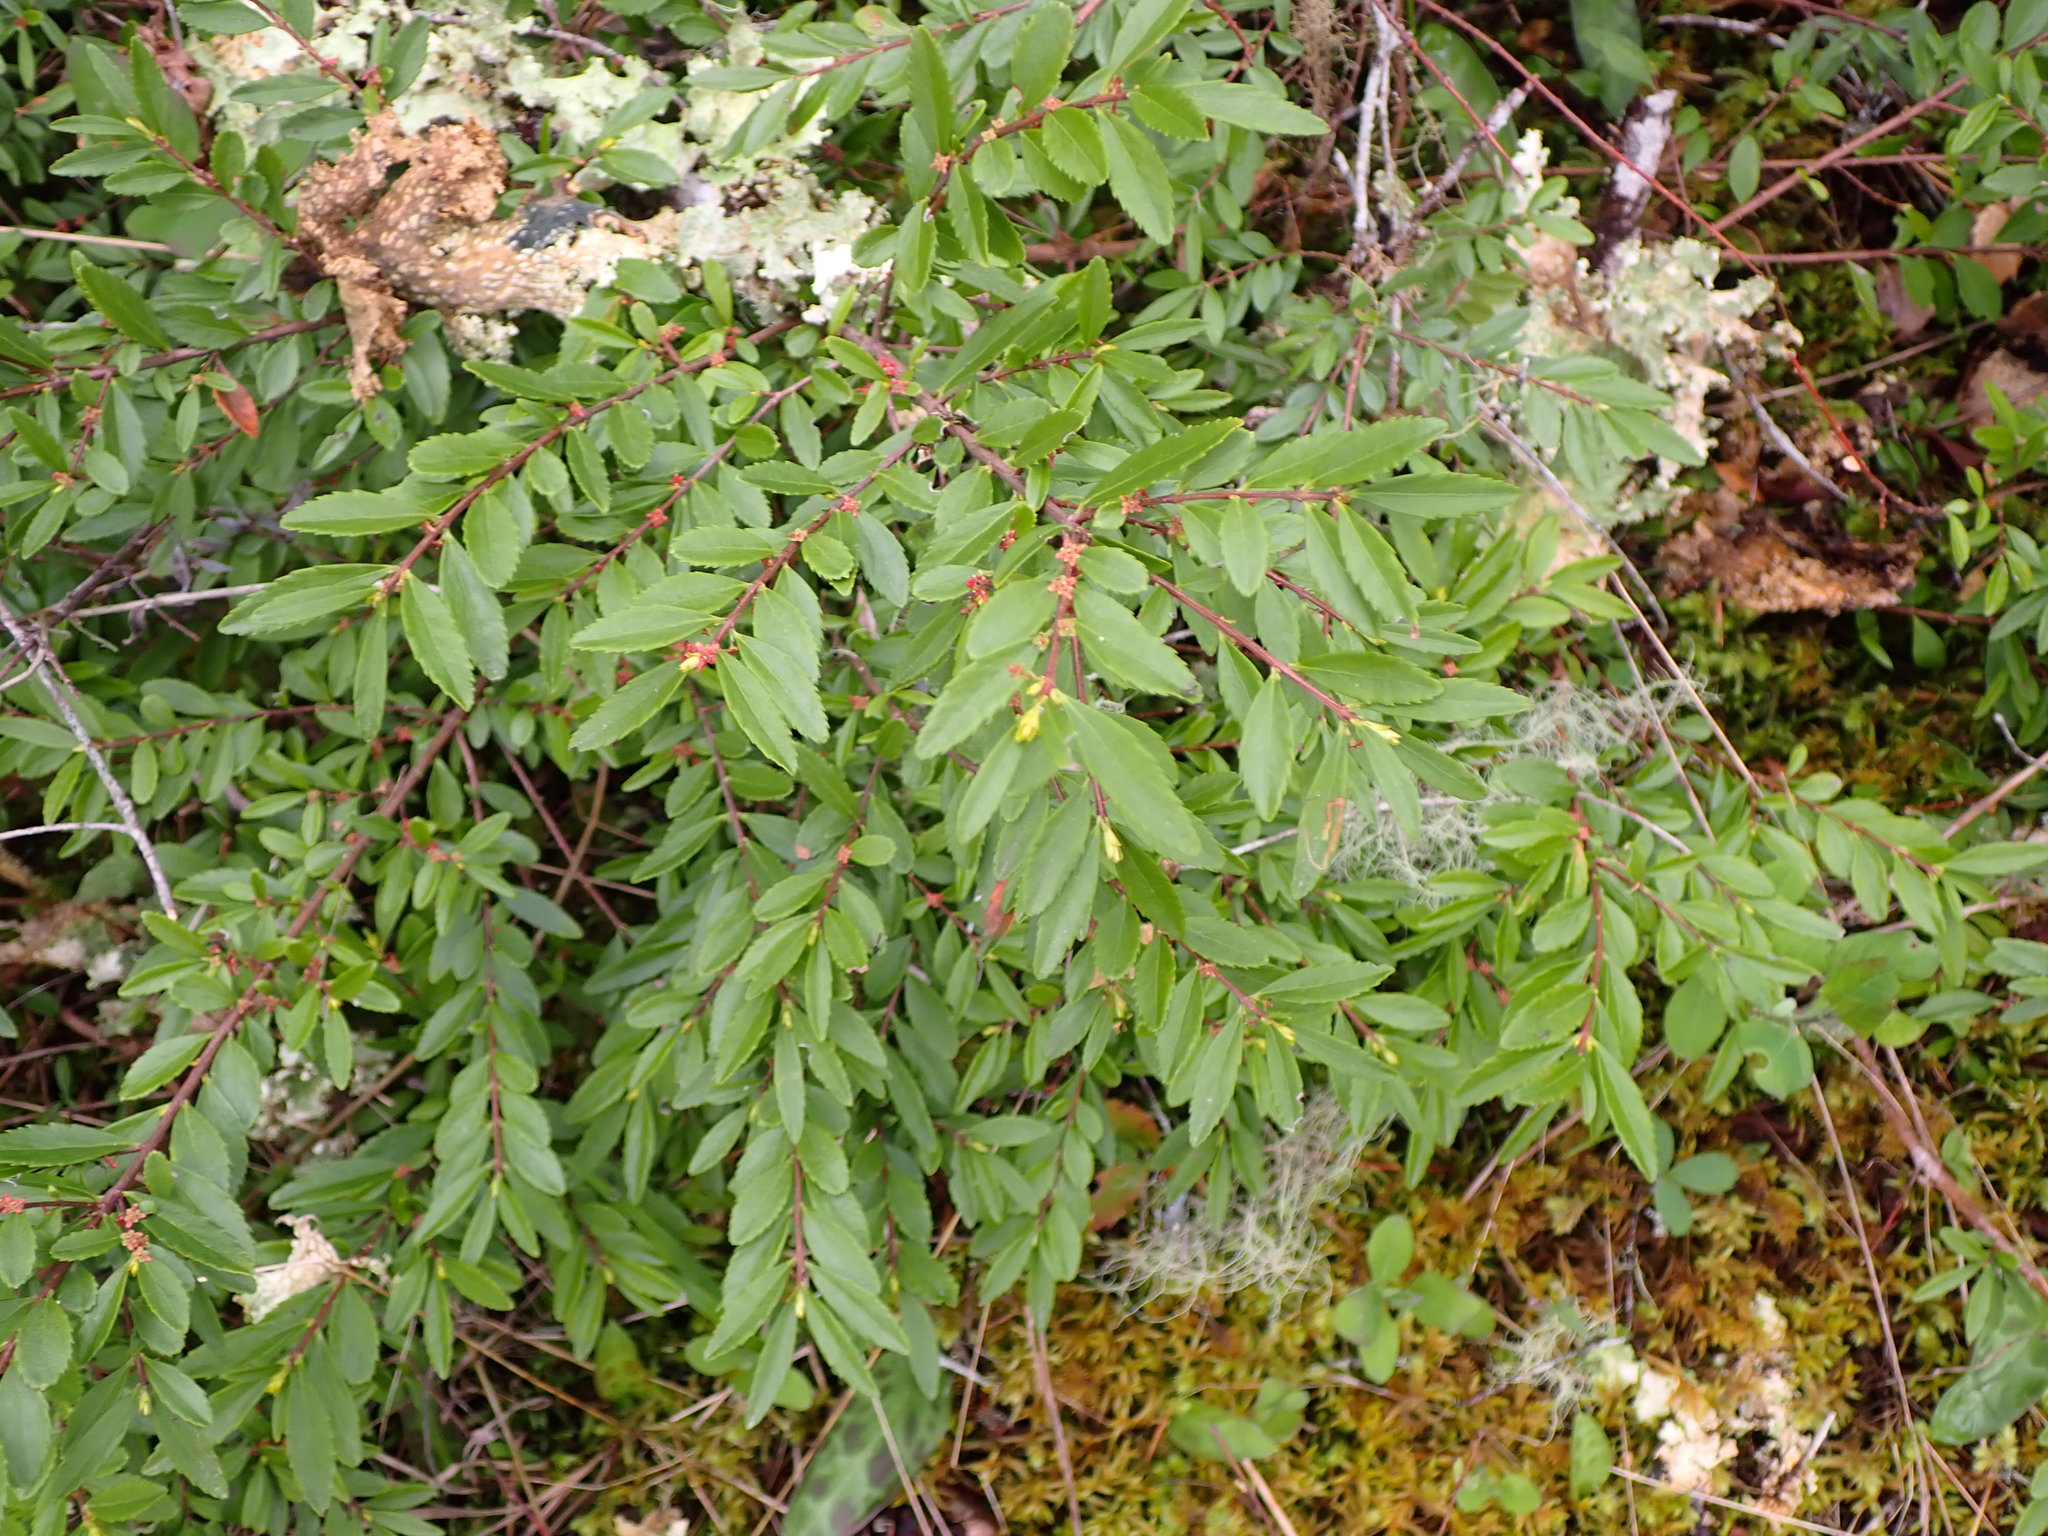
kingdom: Plantae
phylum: Tracheophyta
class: Magnoliopsida
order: Celastrales
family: Celastraceae
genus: Paxistima
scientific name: Paxistima myrsinites
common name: Mountain-lover
